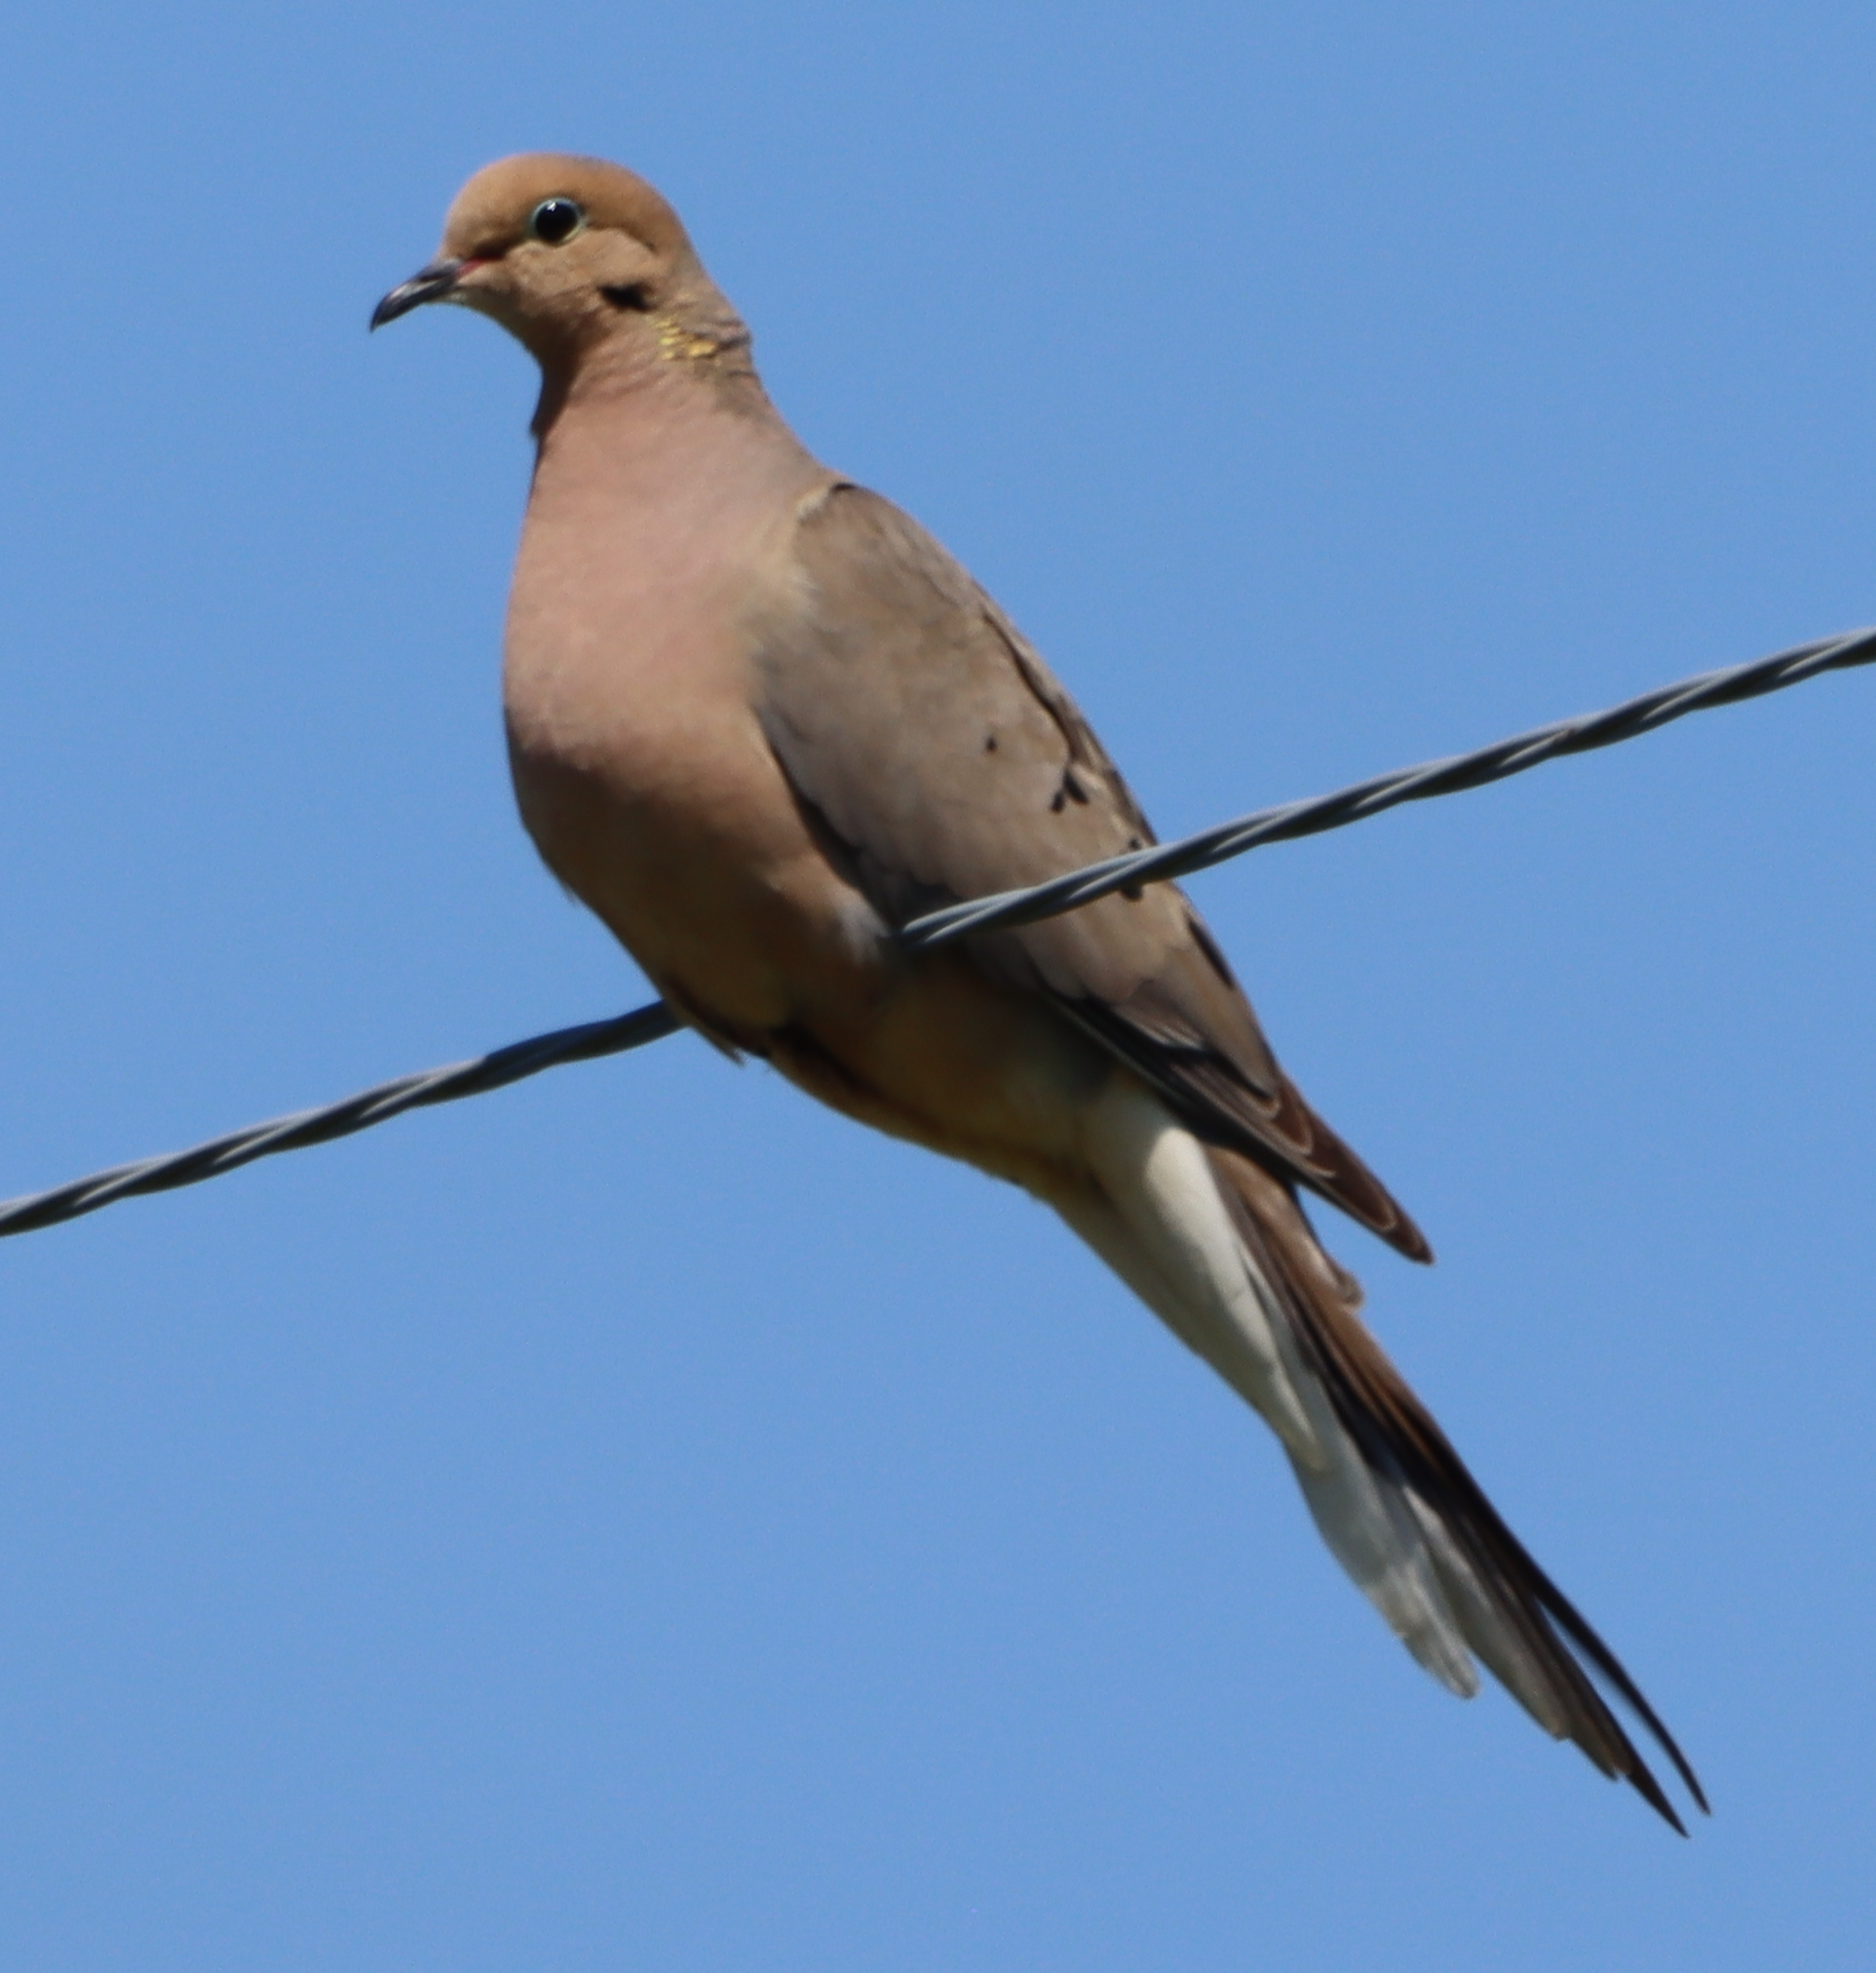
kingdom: Animalia
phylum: Chordata
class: Aves
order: Columbiformes
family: Columbidae
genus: Zenaida
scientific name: Zenaida macroura
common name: Mourning dove
